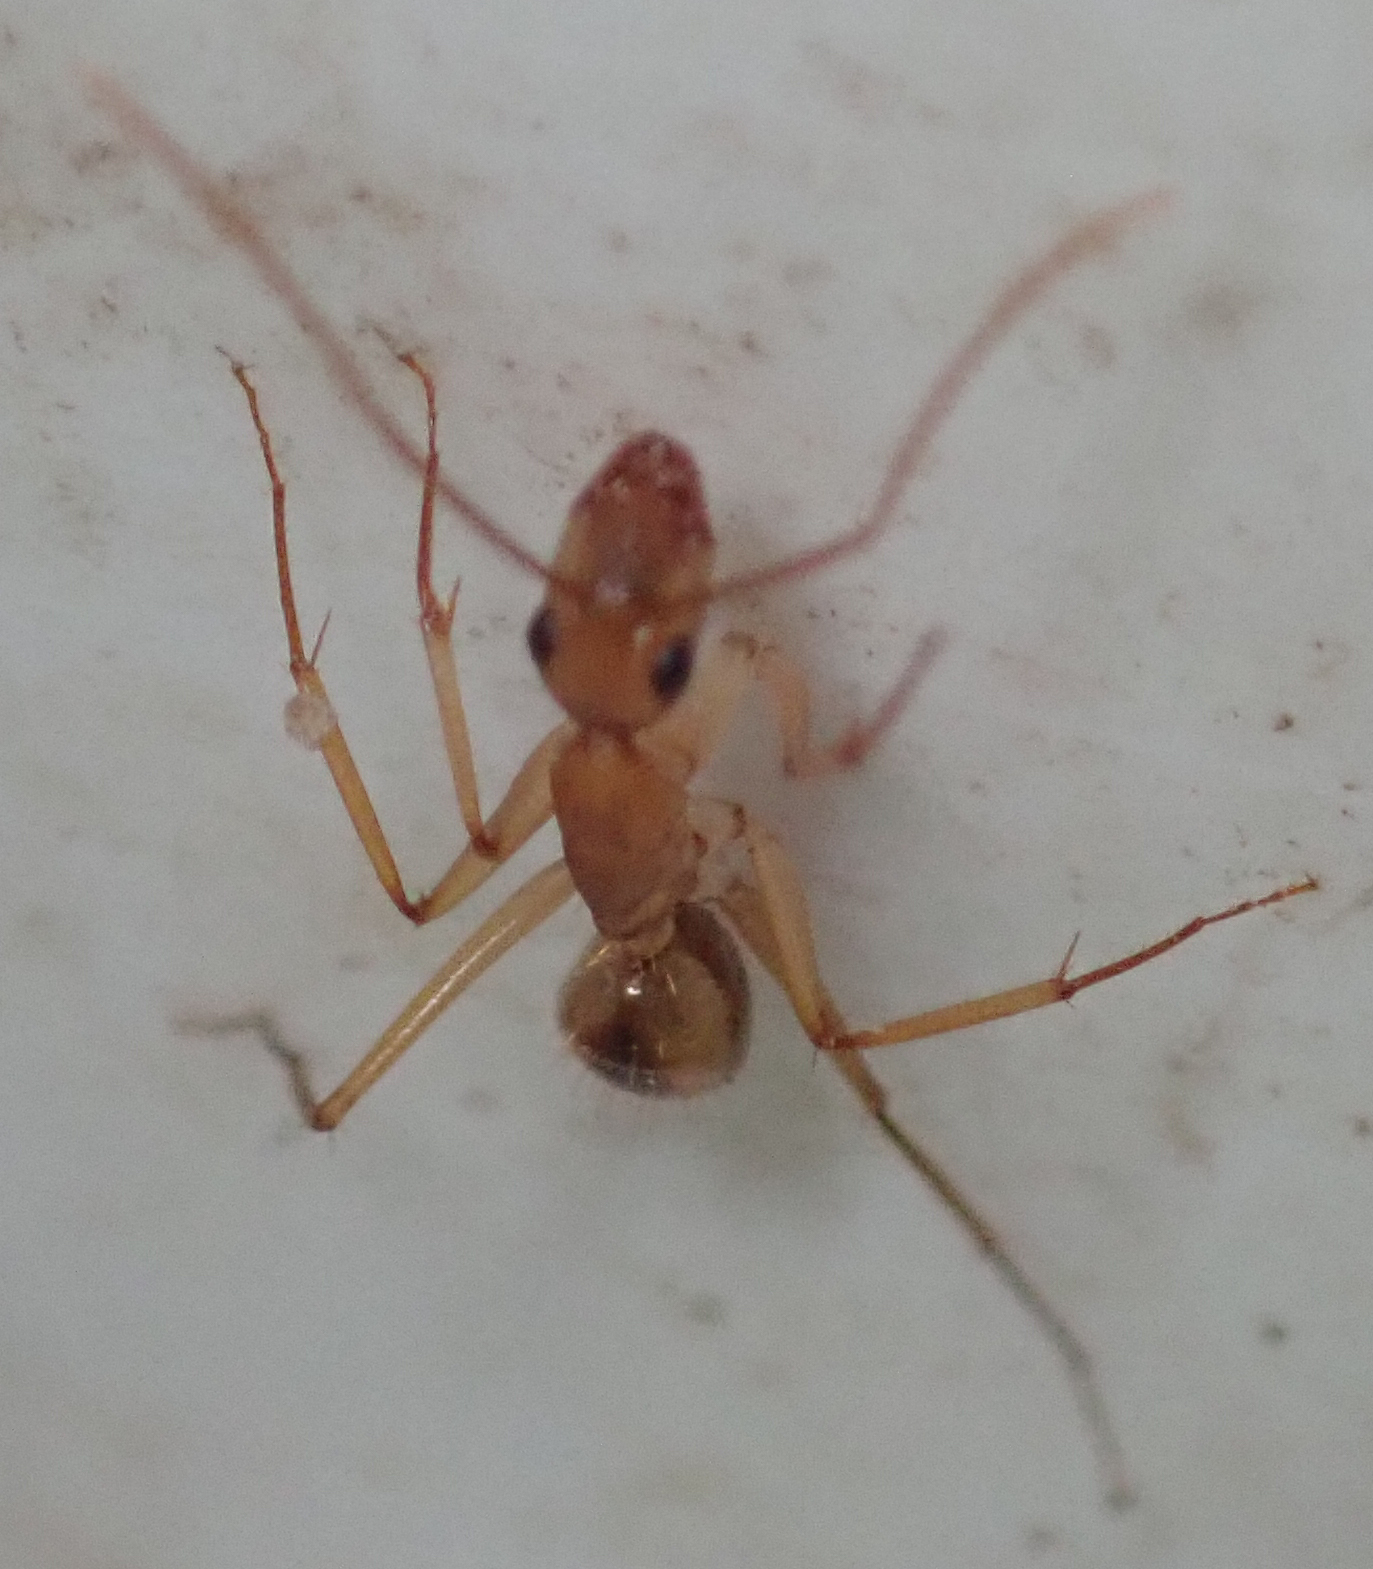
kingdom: Animalia
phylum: Arthropoda
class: Insecta
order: Hymenoptera
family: Formicidae
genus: Camponotus
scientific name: Camponotus hova
